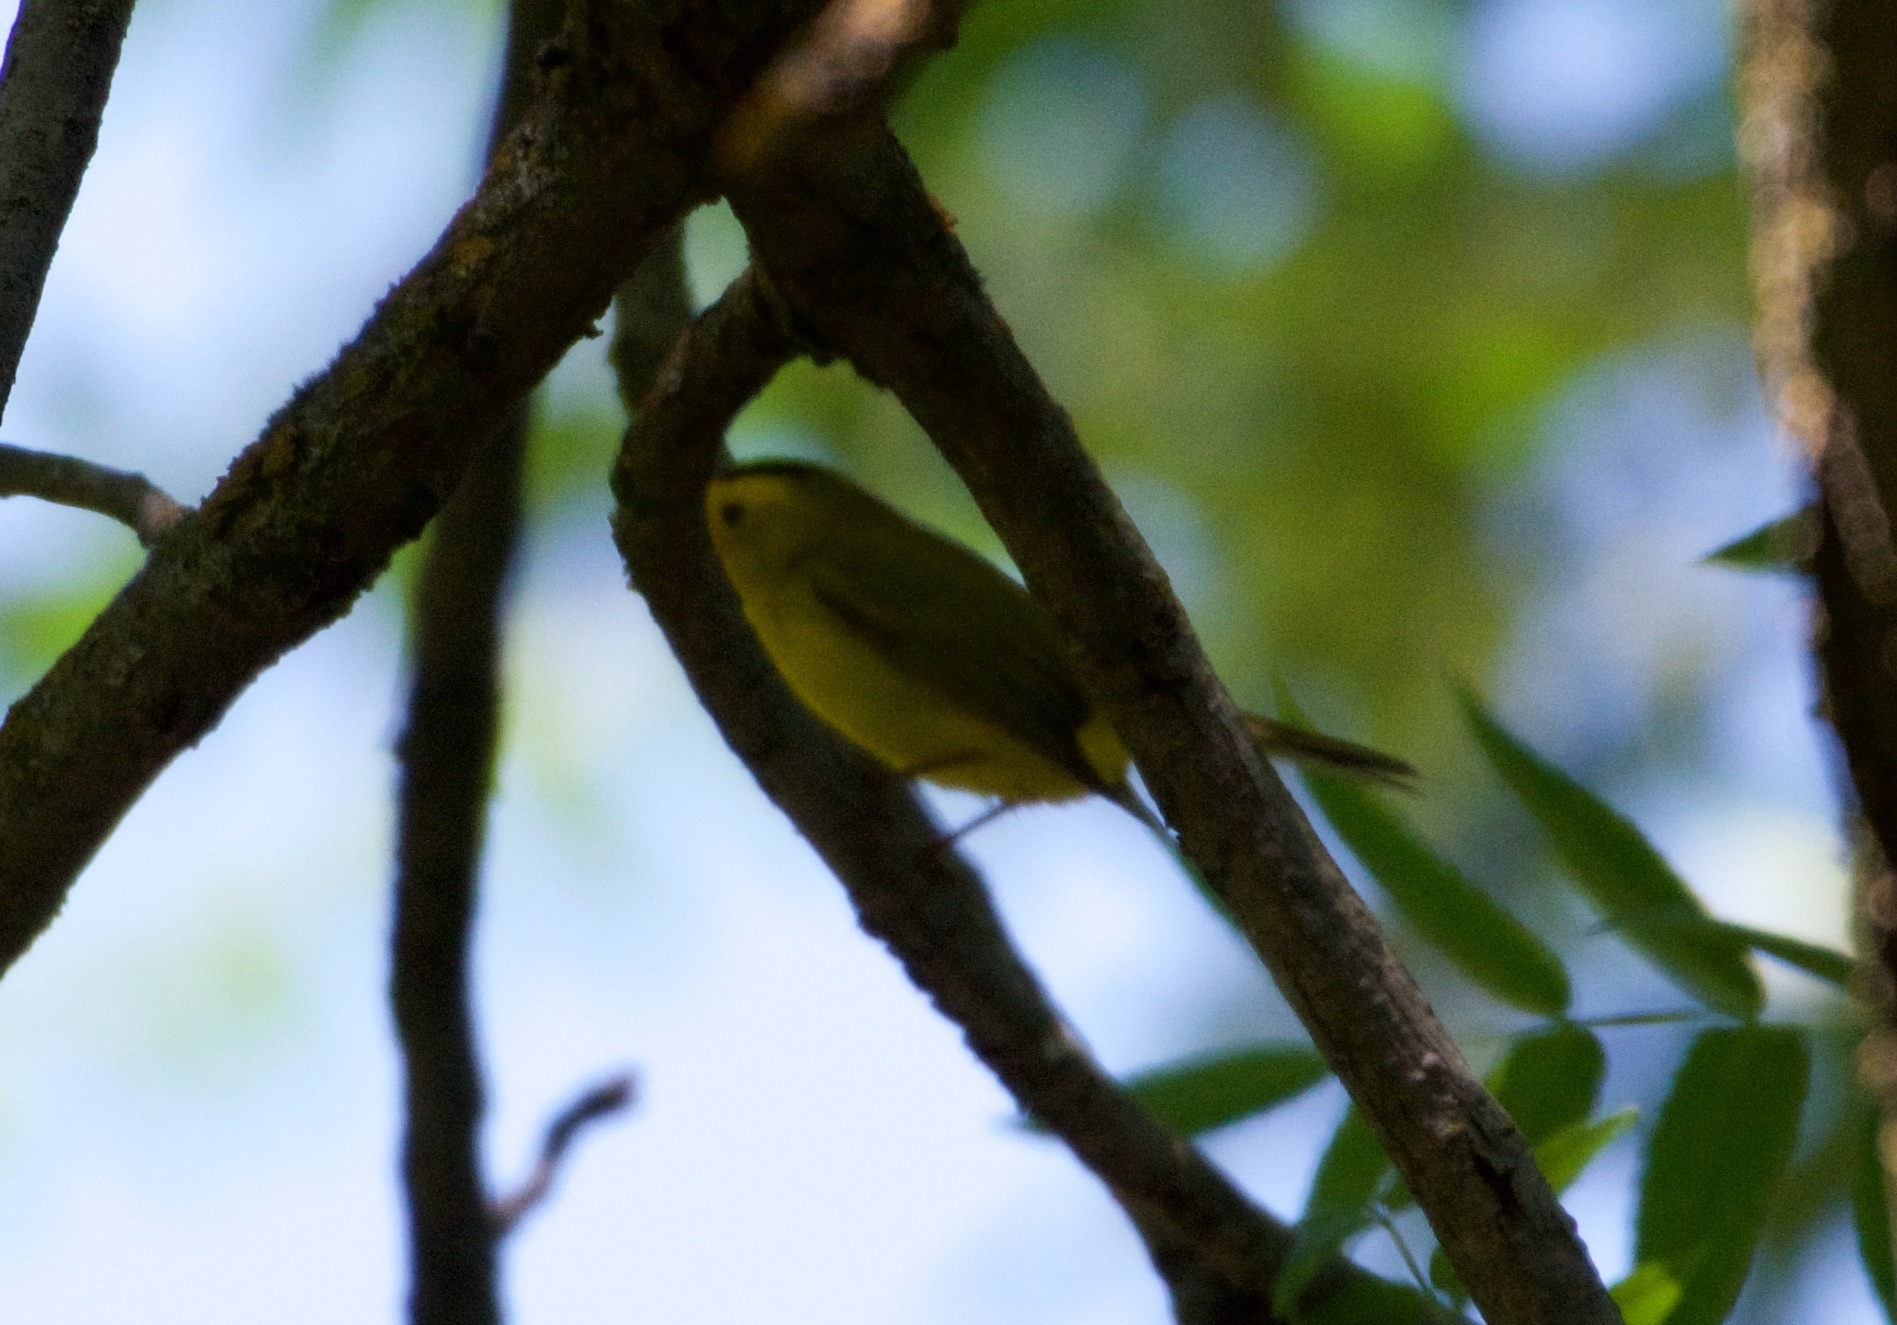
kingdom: Animalia
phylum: Chordata
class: Aves
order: Passeriformes
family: Parulidae
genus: Cardellina
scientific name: Cardellina pusilla
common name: Wilson's warbler
